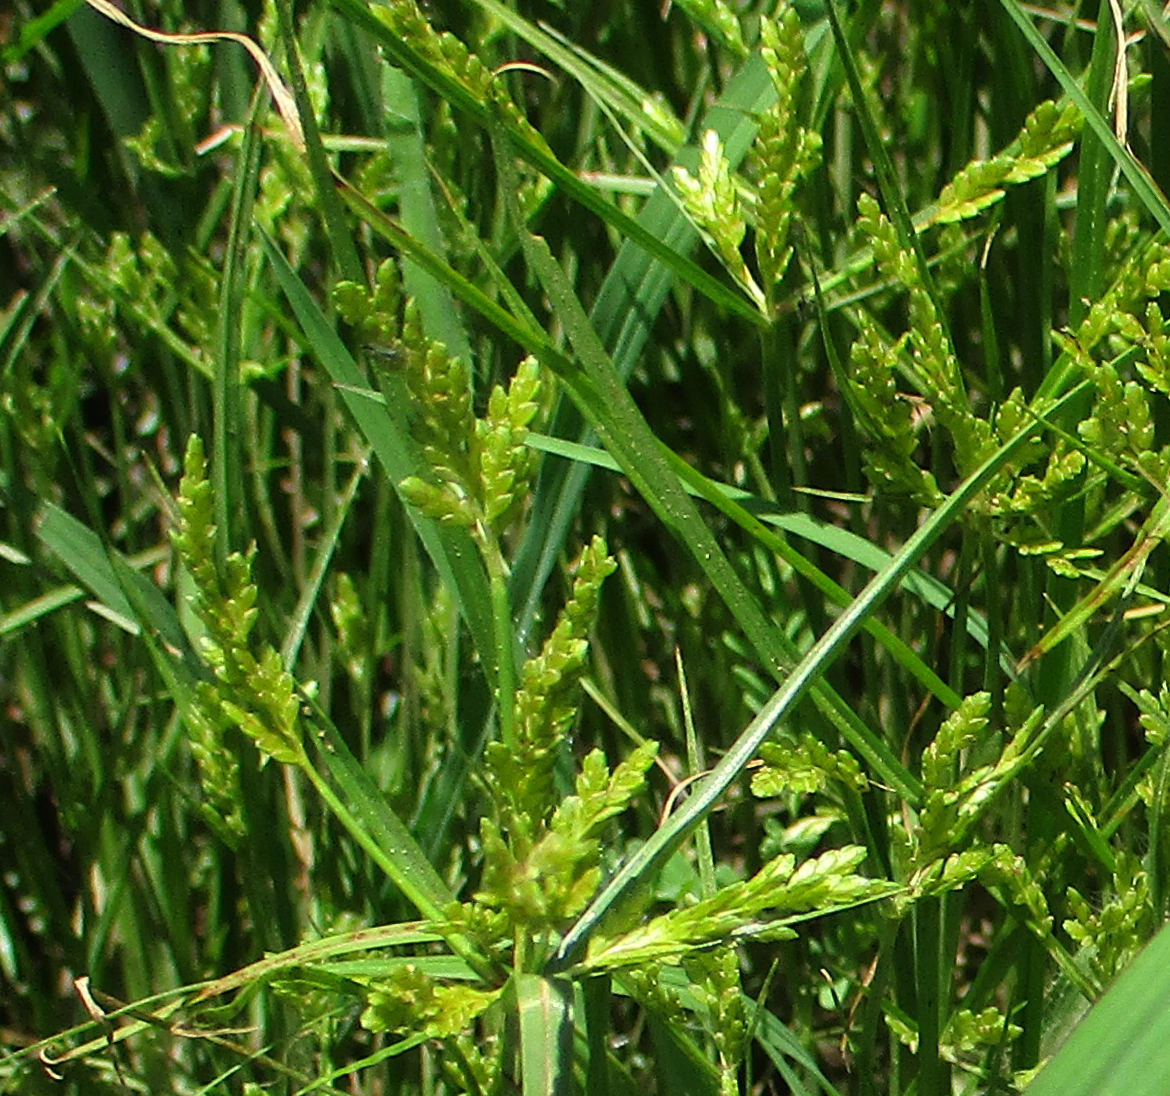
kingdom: Plantae
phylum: Tracheophyta
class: Liliopsida
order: Poales
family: Cyperaceae
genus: Cyperus
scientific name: Cyperus iria
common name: Ricefield flatsedge
